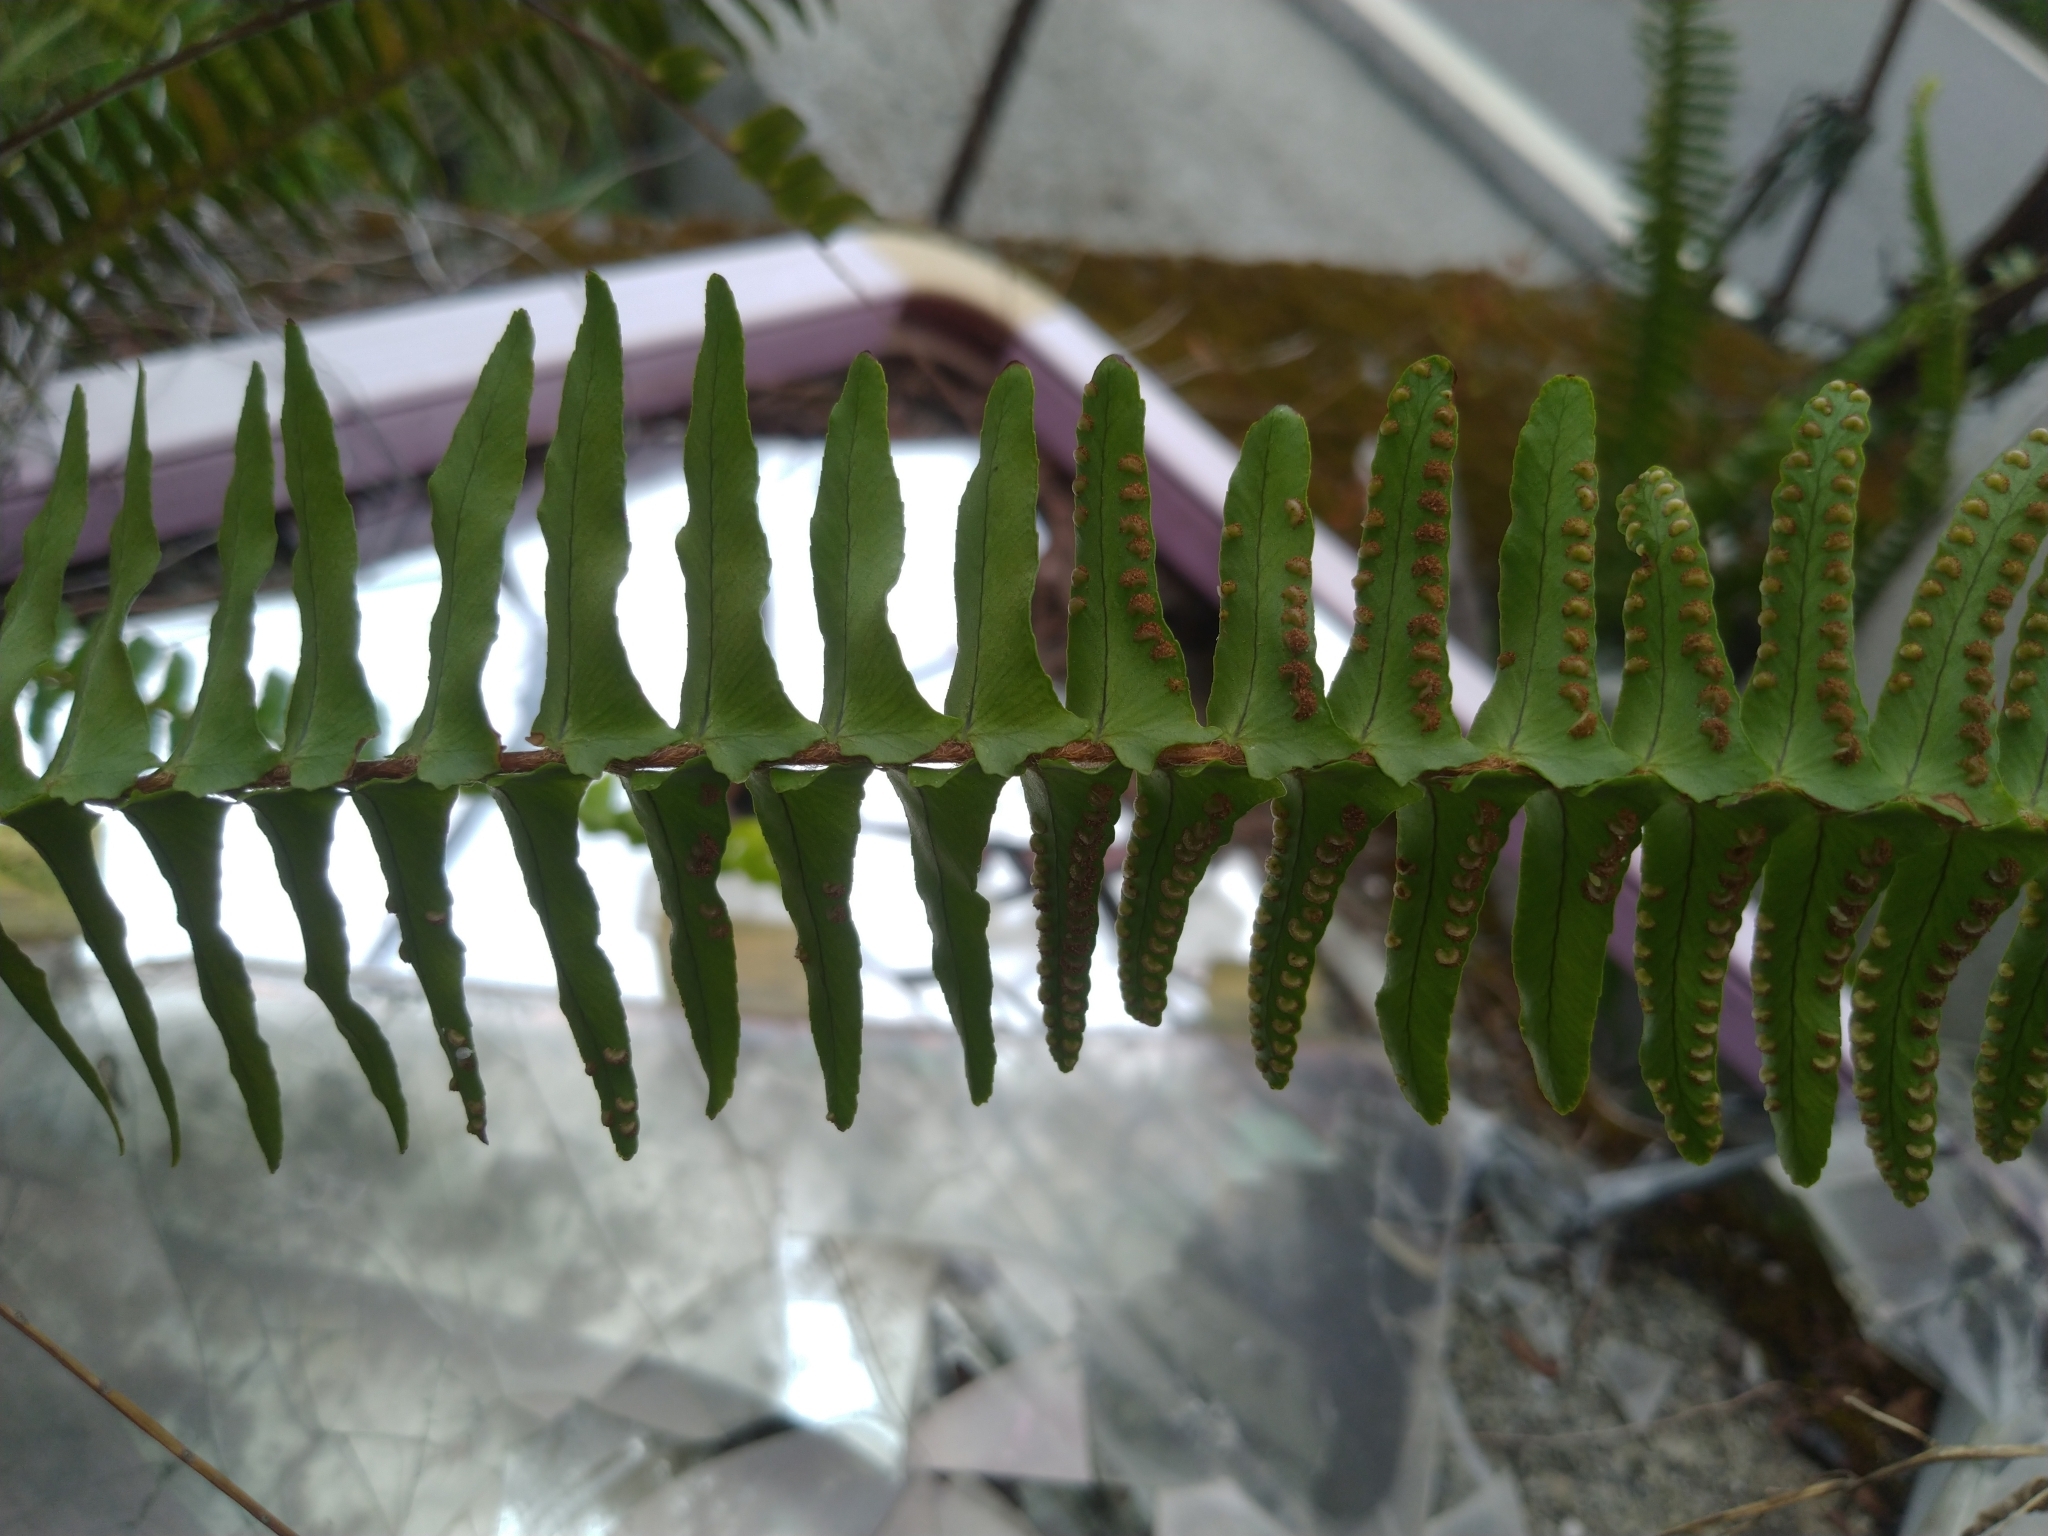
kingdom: Plantae
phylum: Tracheophyta
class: Polypodiopsida
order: Polypodiales
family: Nephrolepidaceae
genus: Nephrolepis
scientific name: Nephrolepis cordifolia
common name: Narrow swordfern
